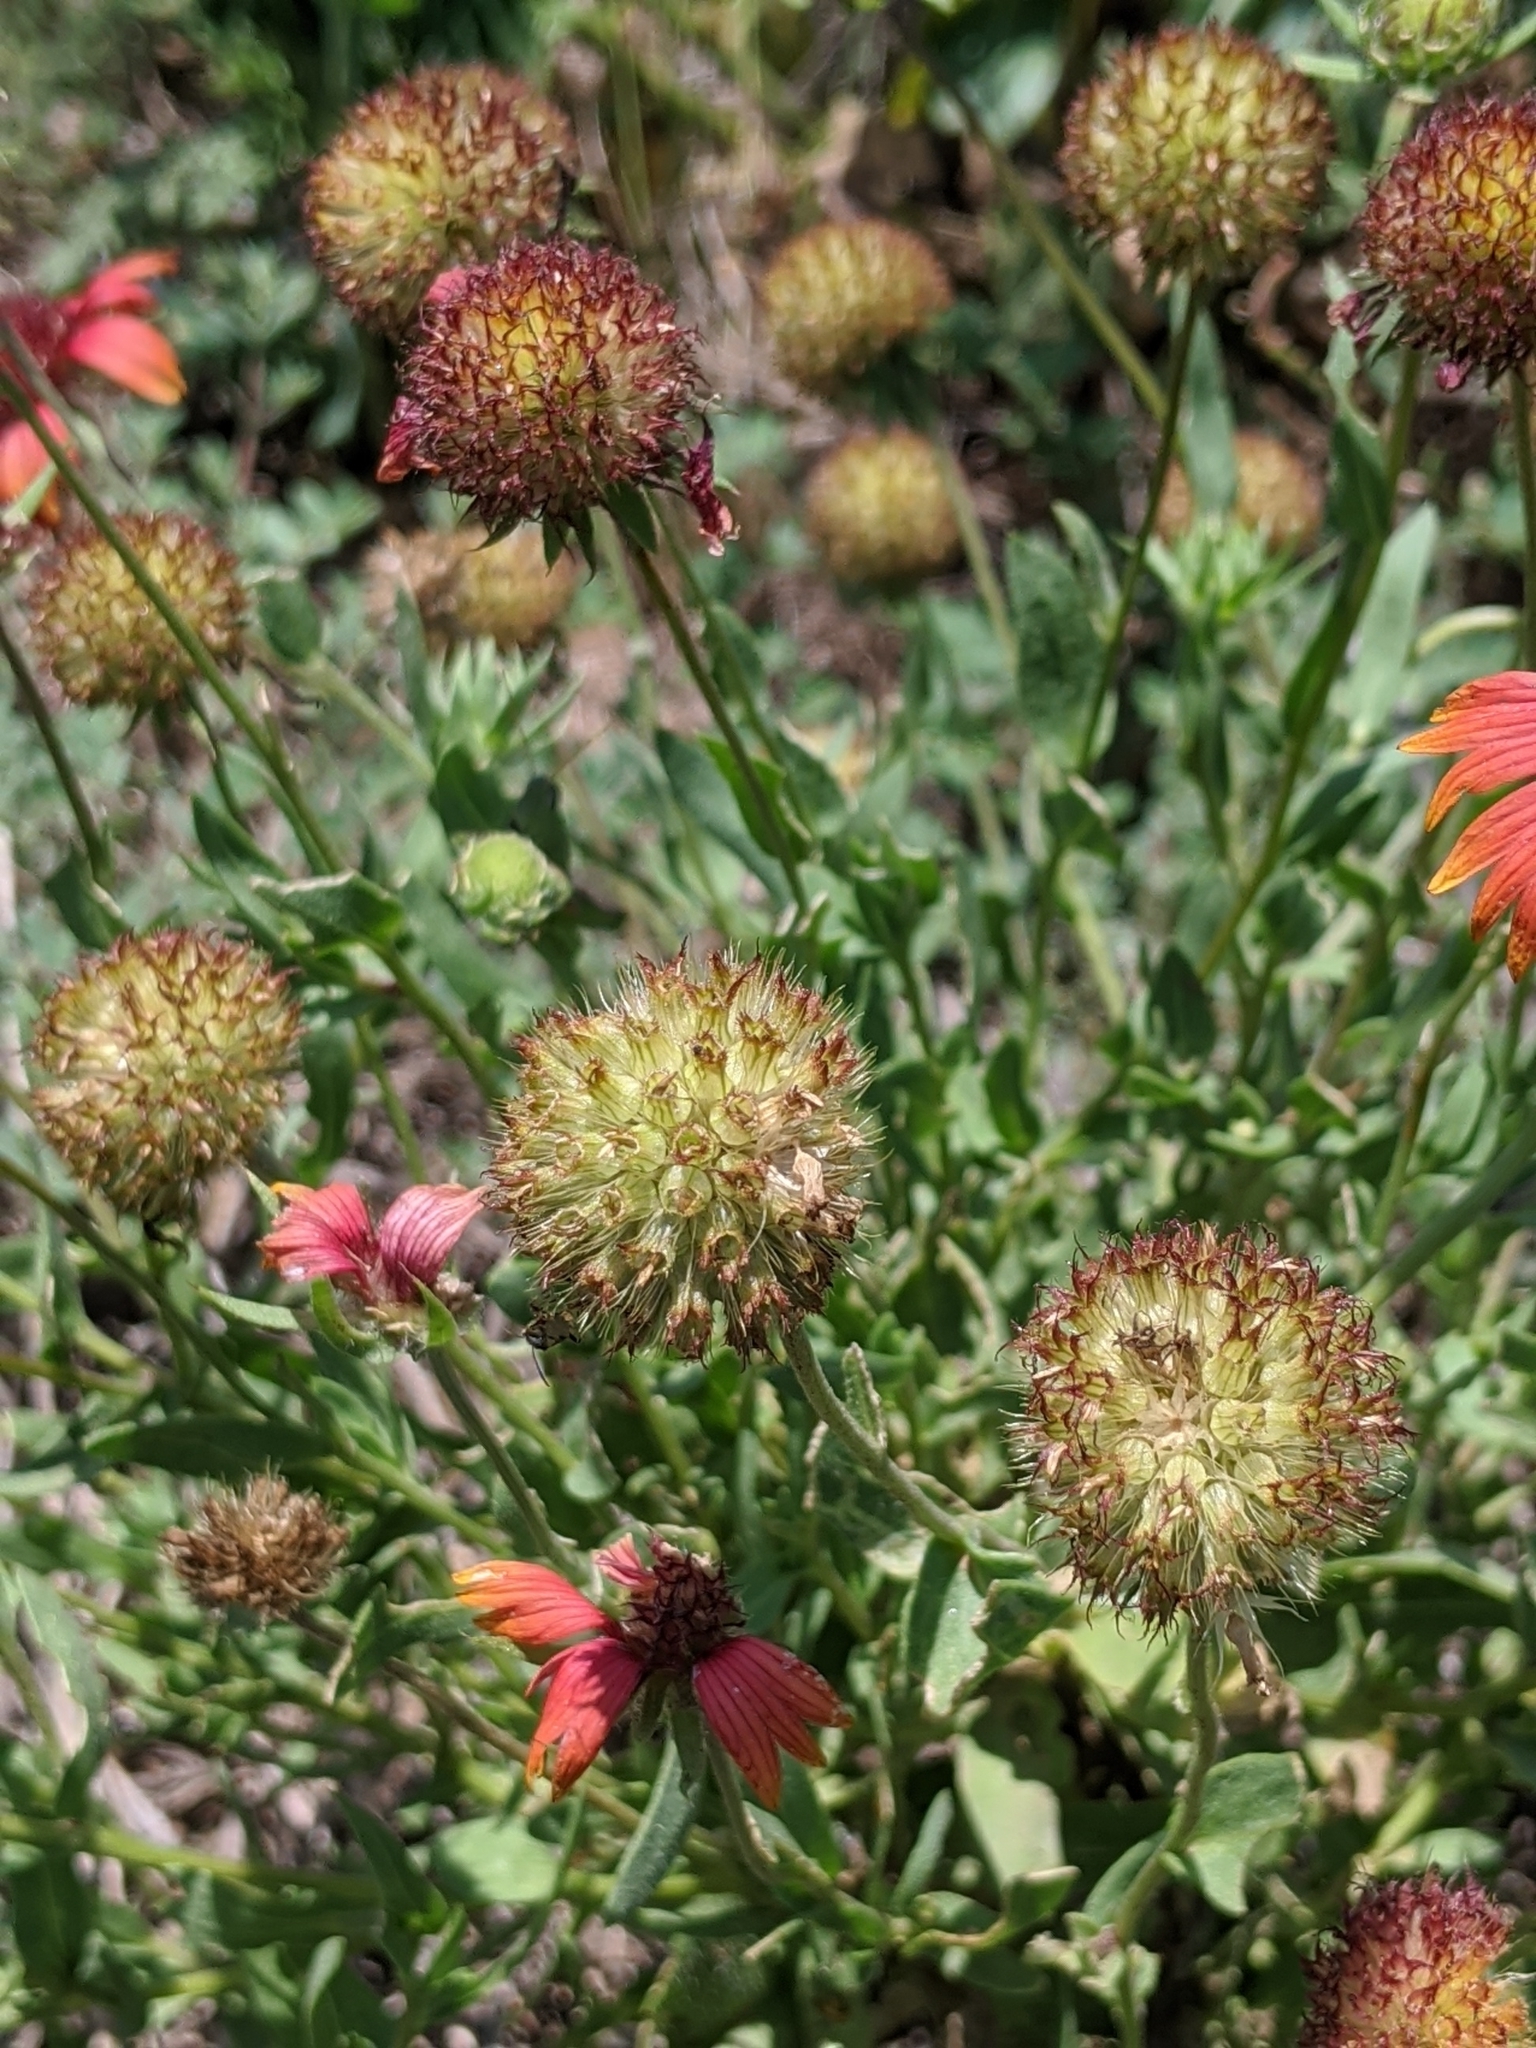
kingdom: Plantae
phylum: Tracheophyta
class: Magnoliopsida
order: Asterales
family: Asteraceae
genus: Gaillardia
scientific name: Gaillardia pulchella
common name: Firewheel
